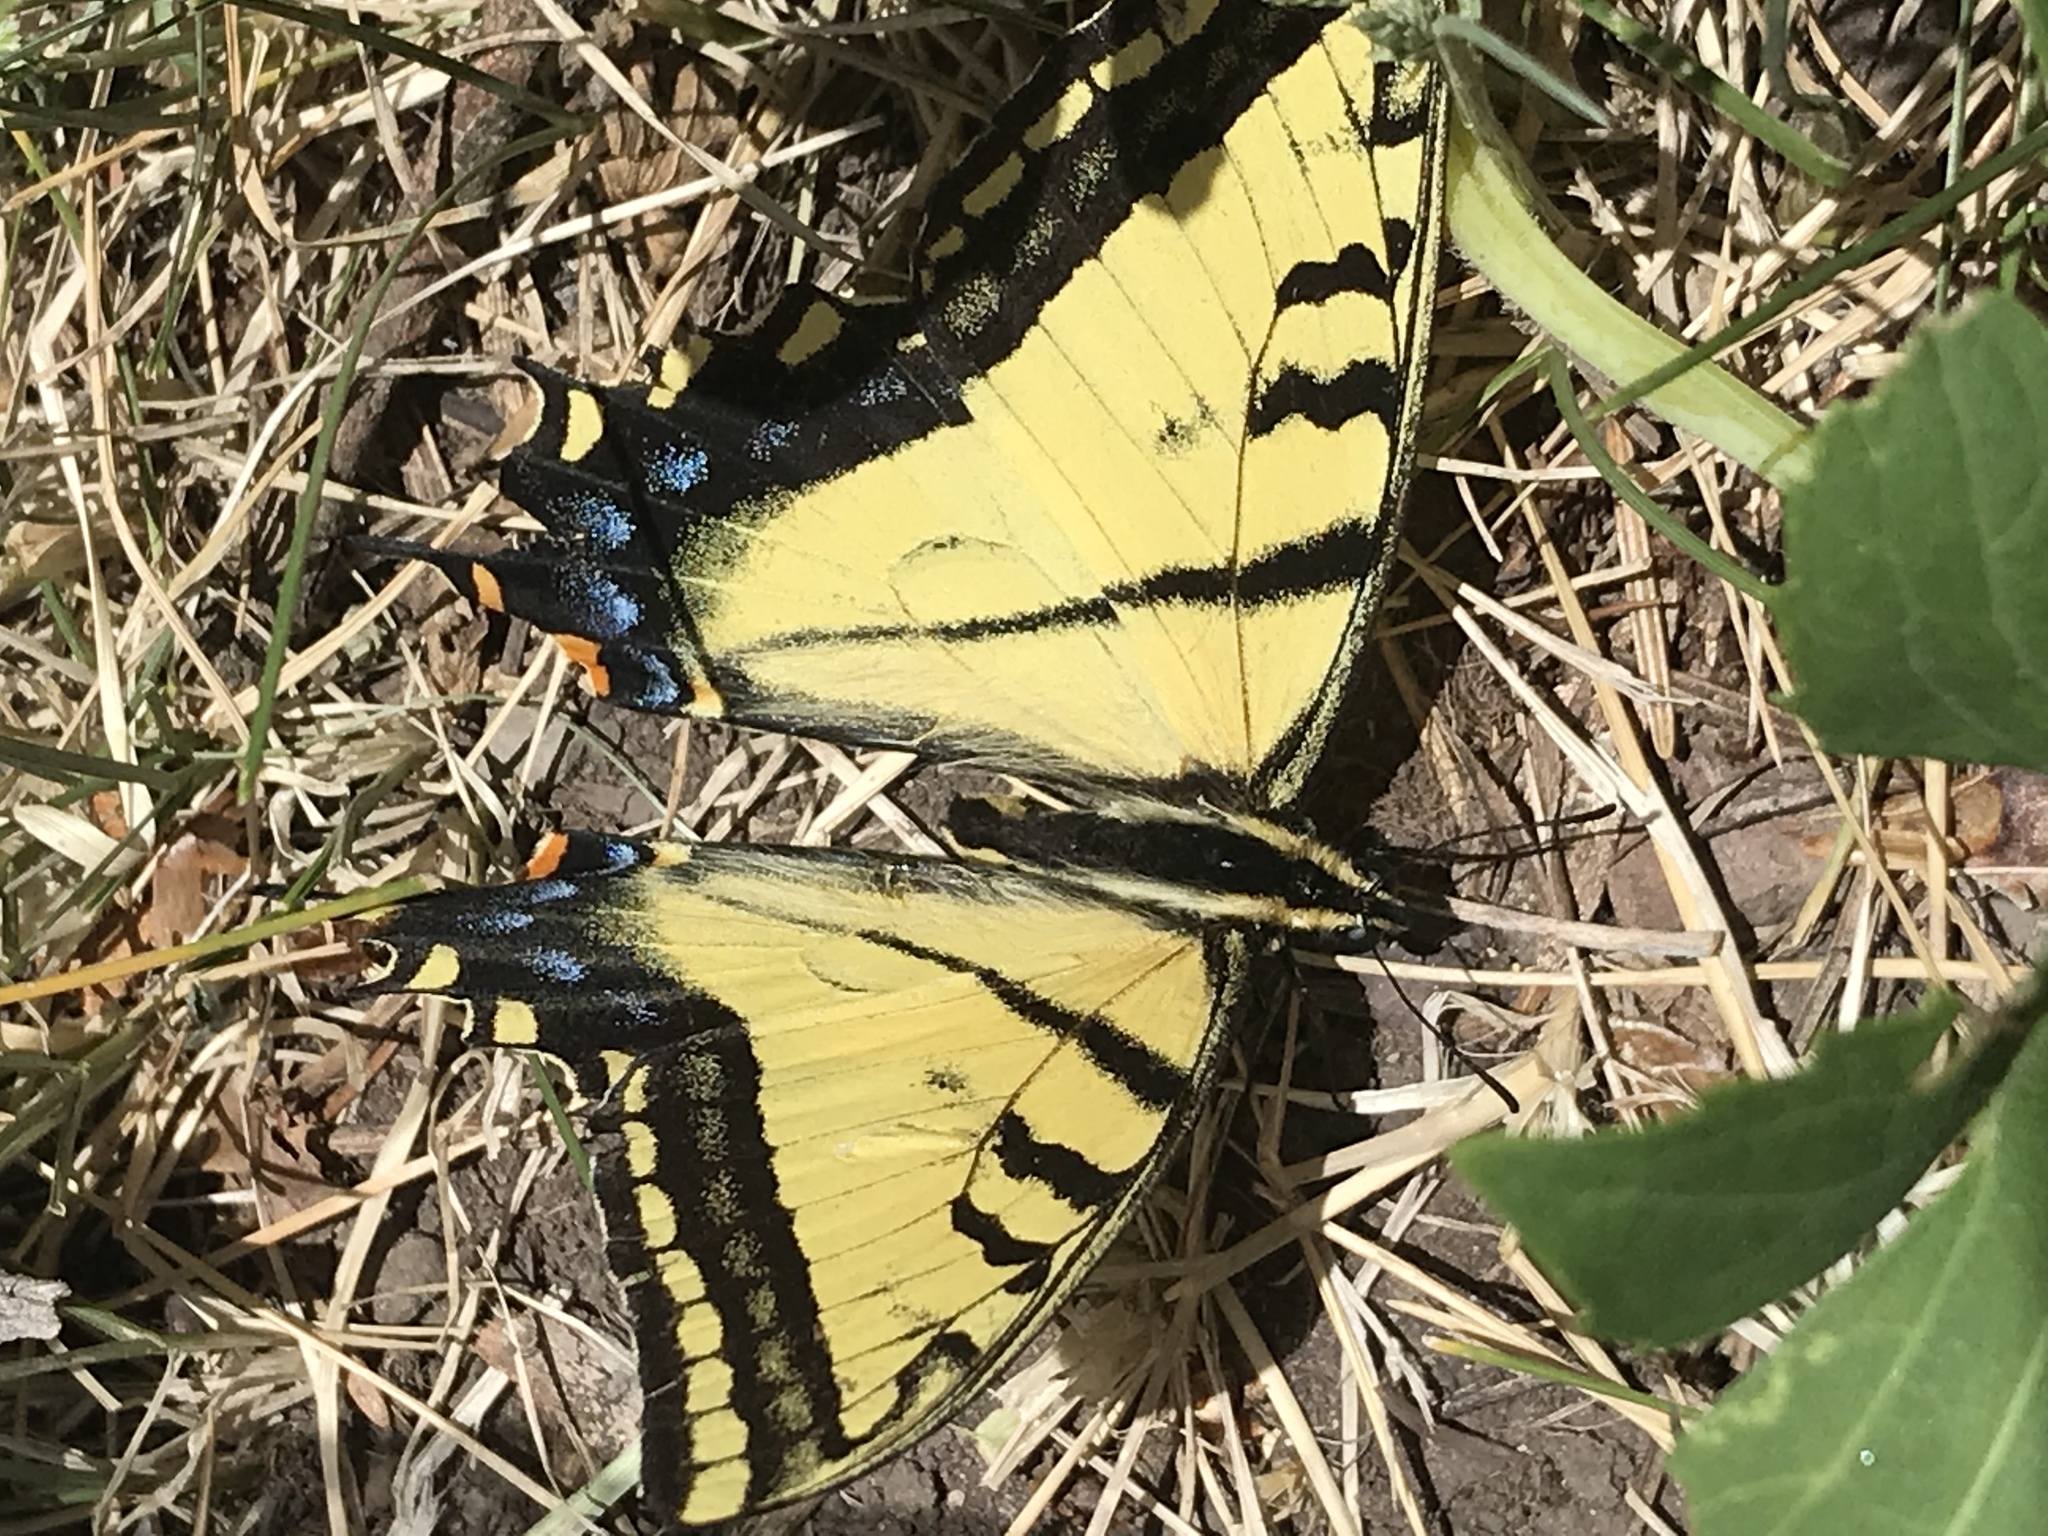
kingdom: Animalia
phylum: Arthropoda
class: Insecta
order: Lepidoptera
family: Papilionidae
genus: Papilio
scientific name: Papilio multicaudata
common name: Two-tailed tiger swallowtail
